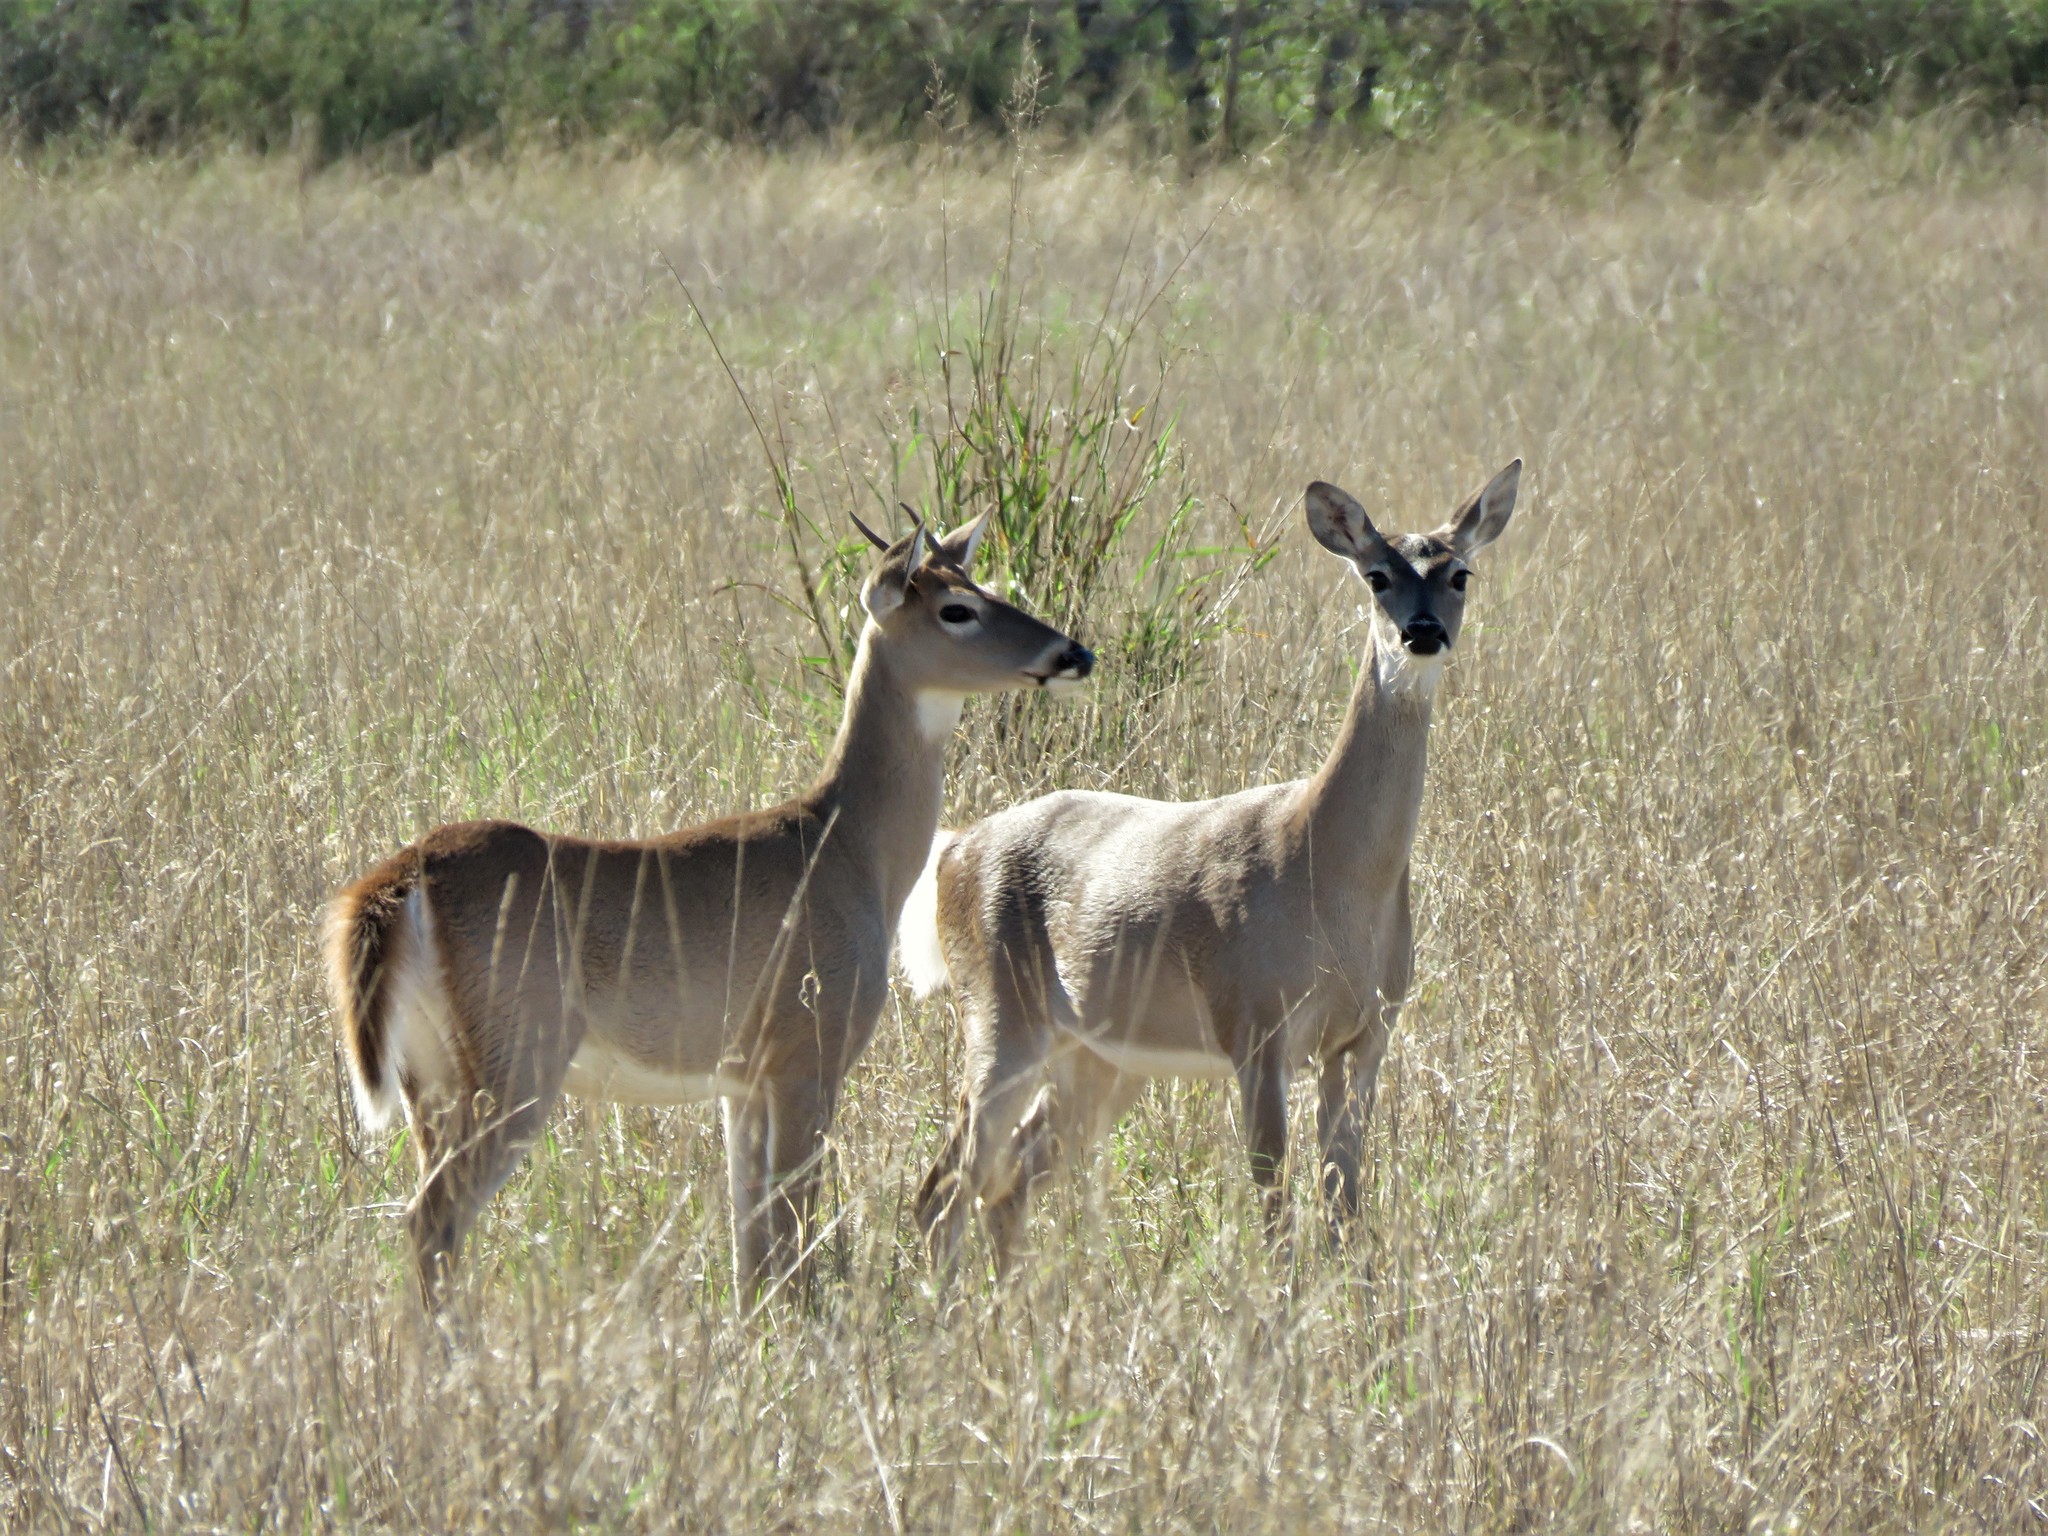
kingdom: Animalia
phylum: Chordata
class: Mammalia
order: Artiodactyla
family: Cervidae
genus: Odocoileus
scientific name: Odocoileus virginianus
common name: White-tailed deer
